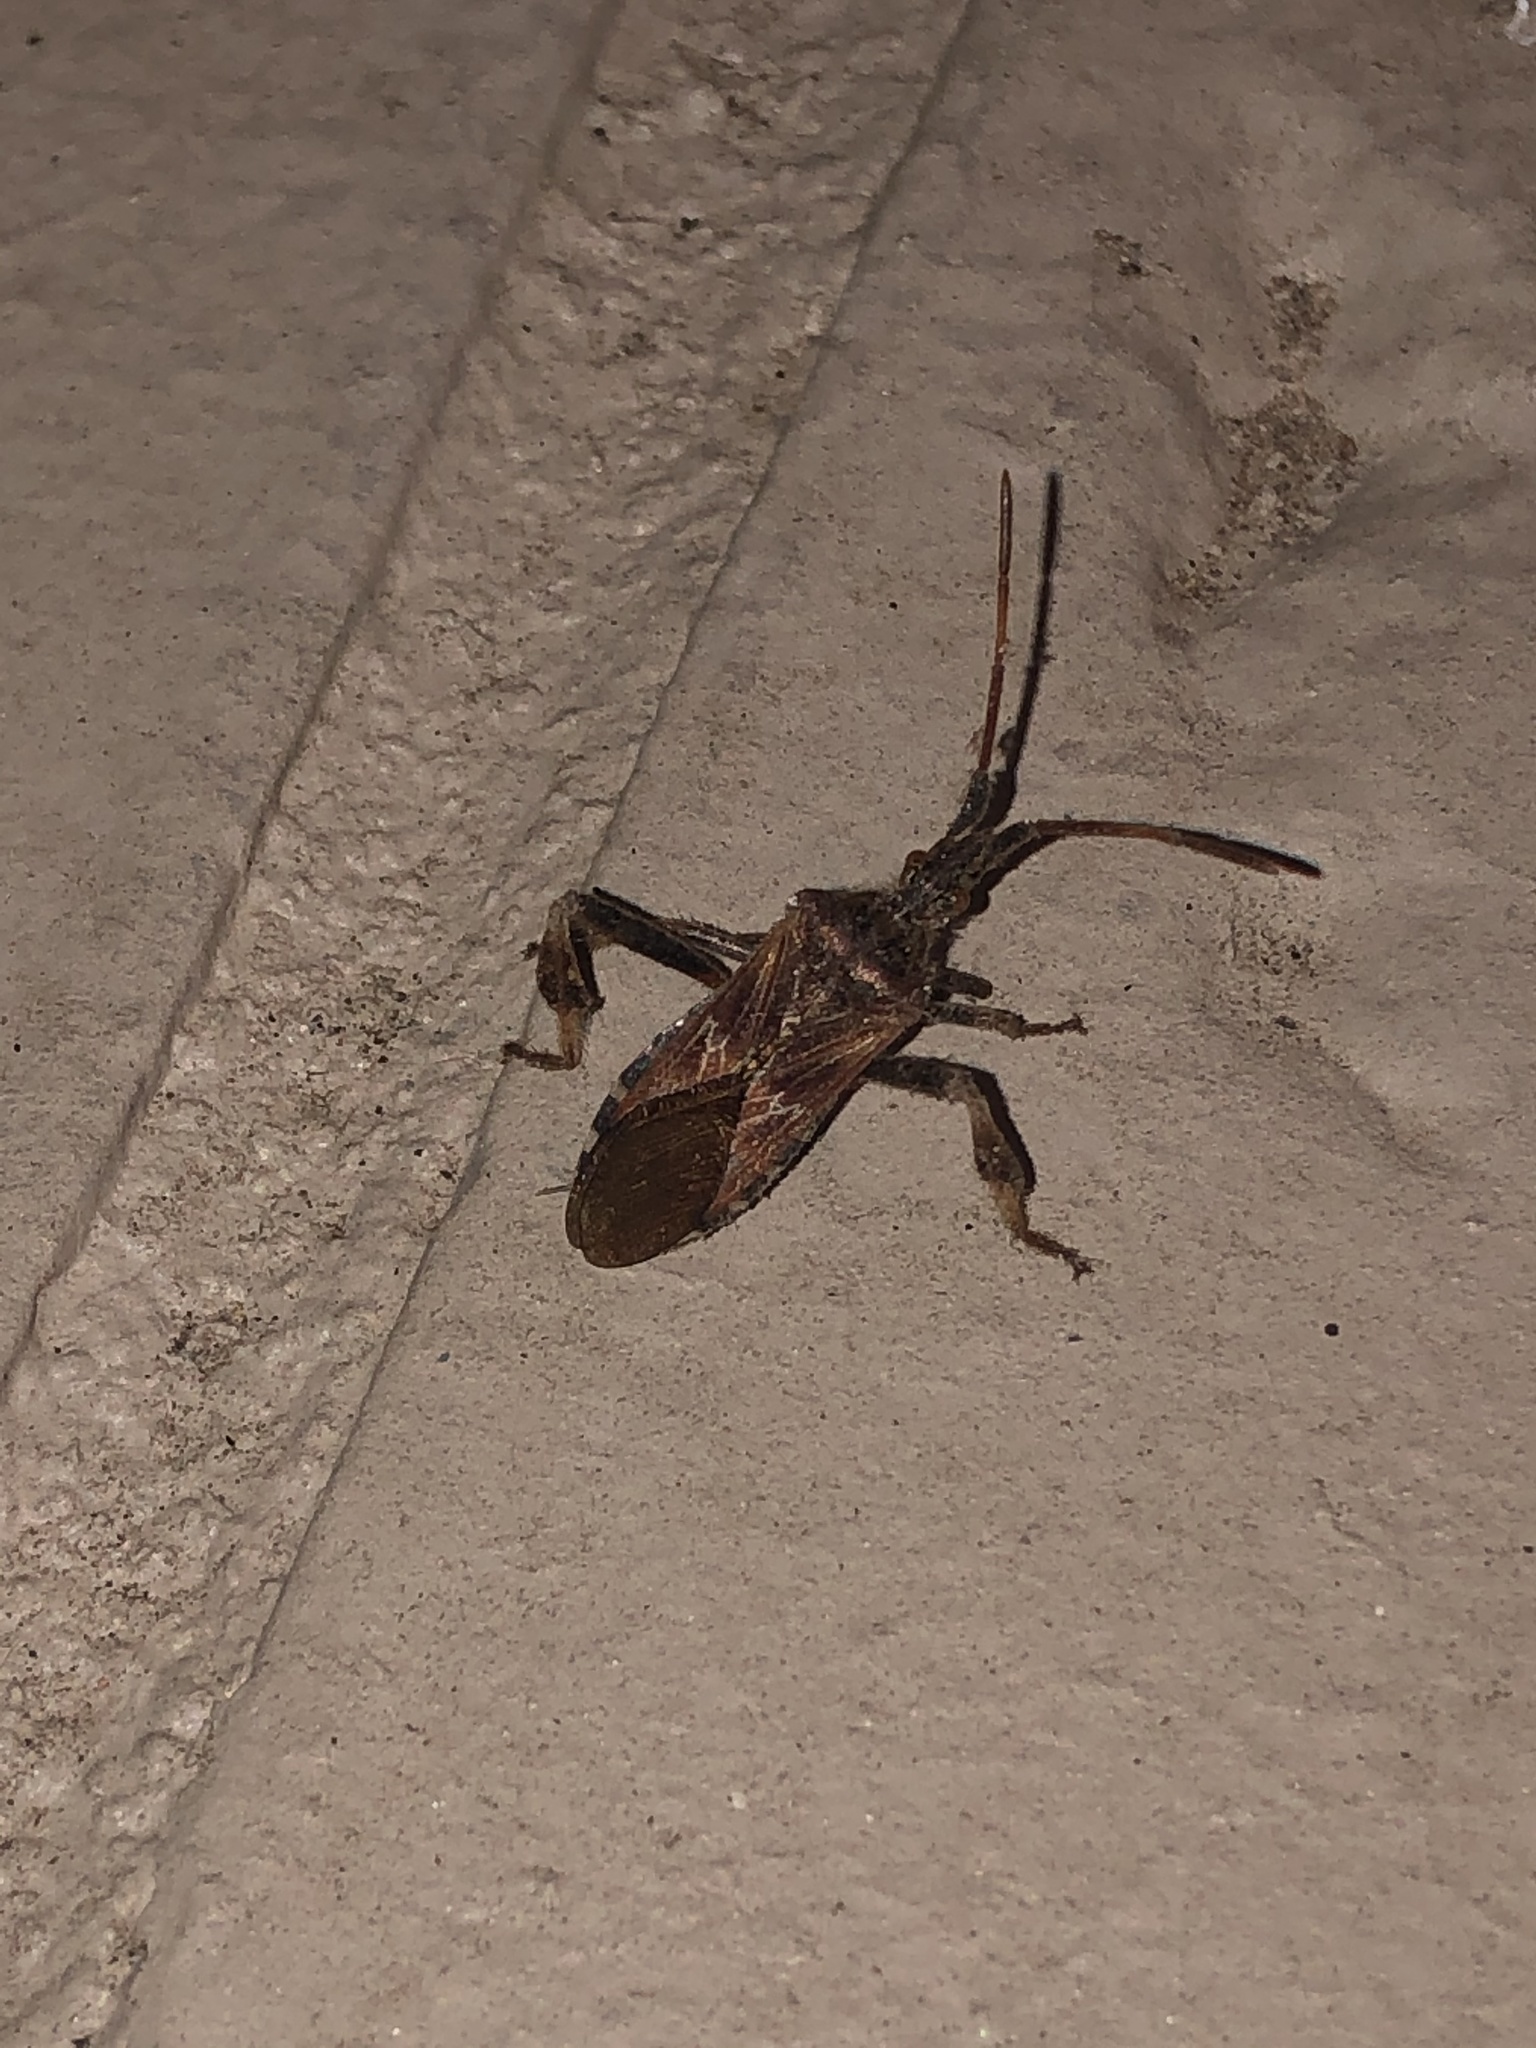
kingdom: Animalia
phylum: Arthropoda
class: Insecta
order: Hemiptera
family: Coreidae
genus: Leptoglossus
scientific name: Leptoglossus occidentalis
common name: Western conifer-seed bug
